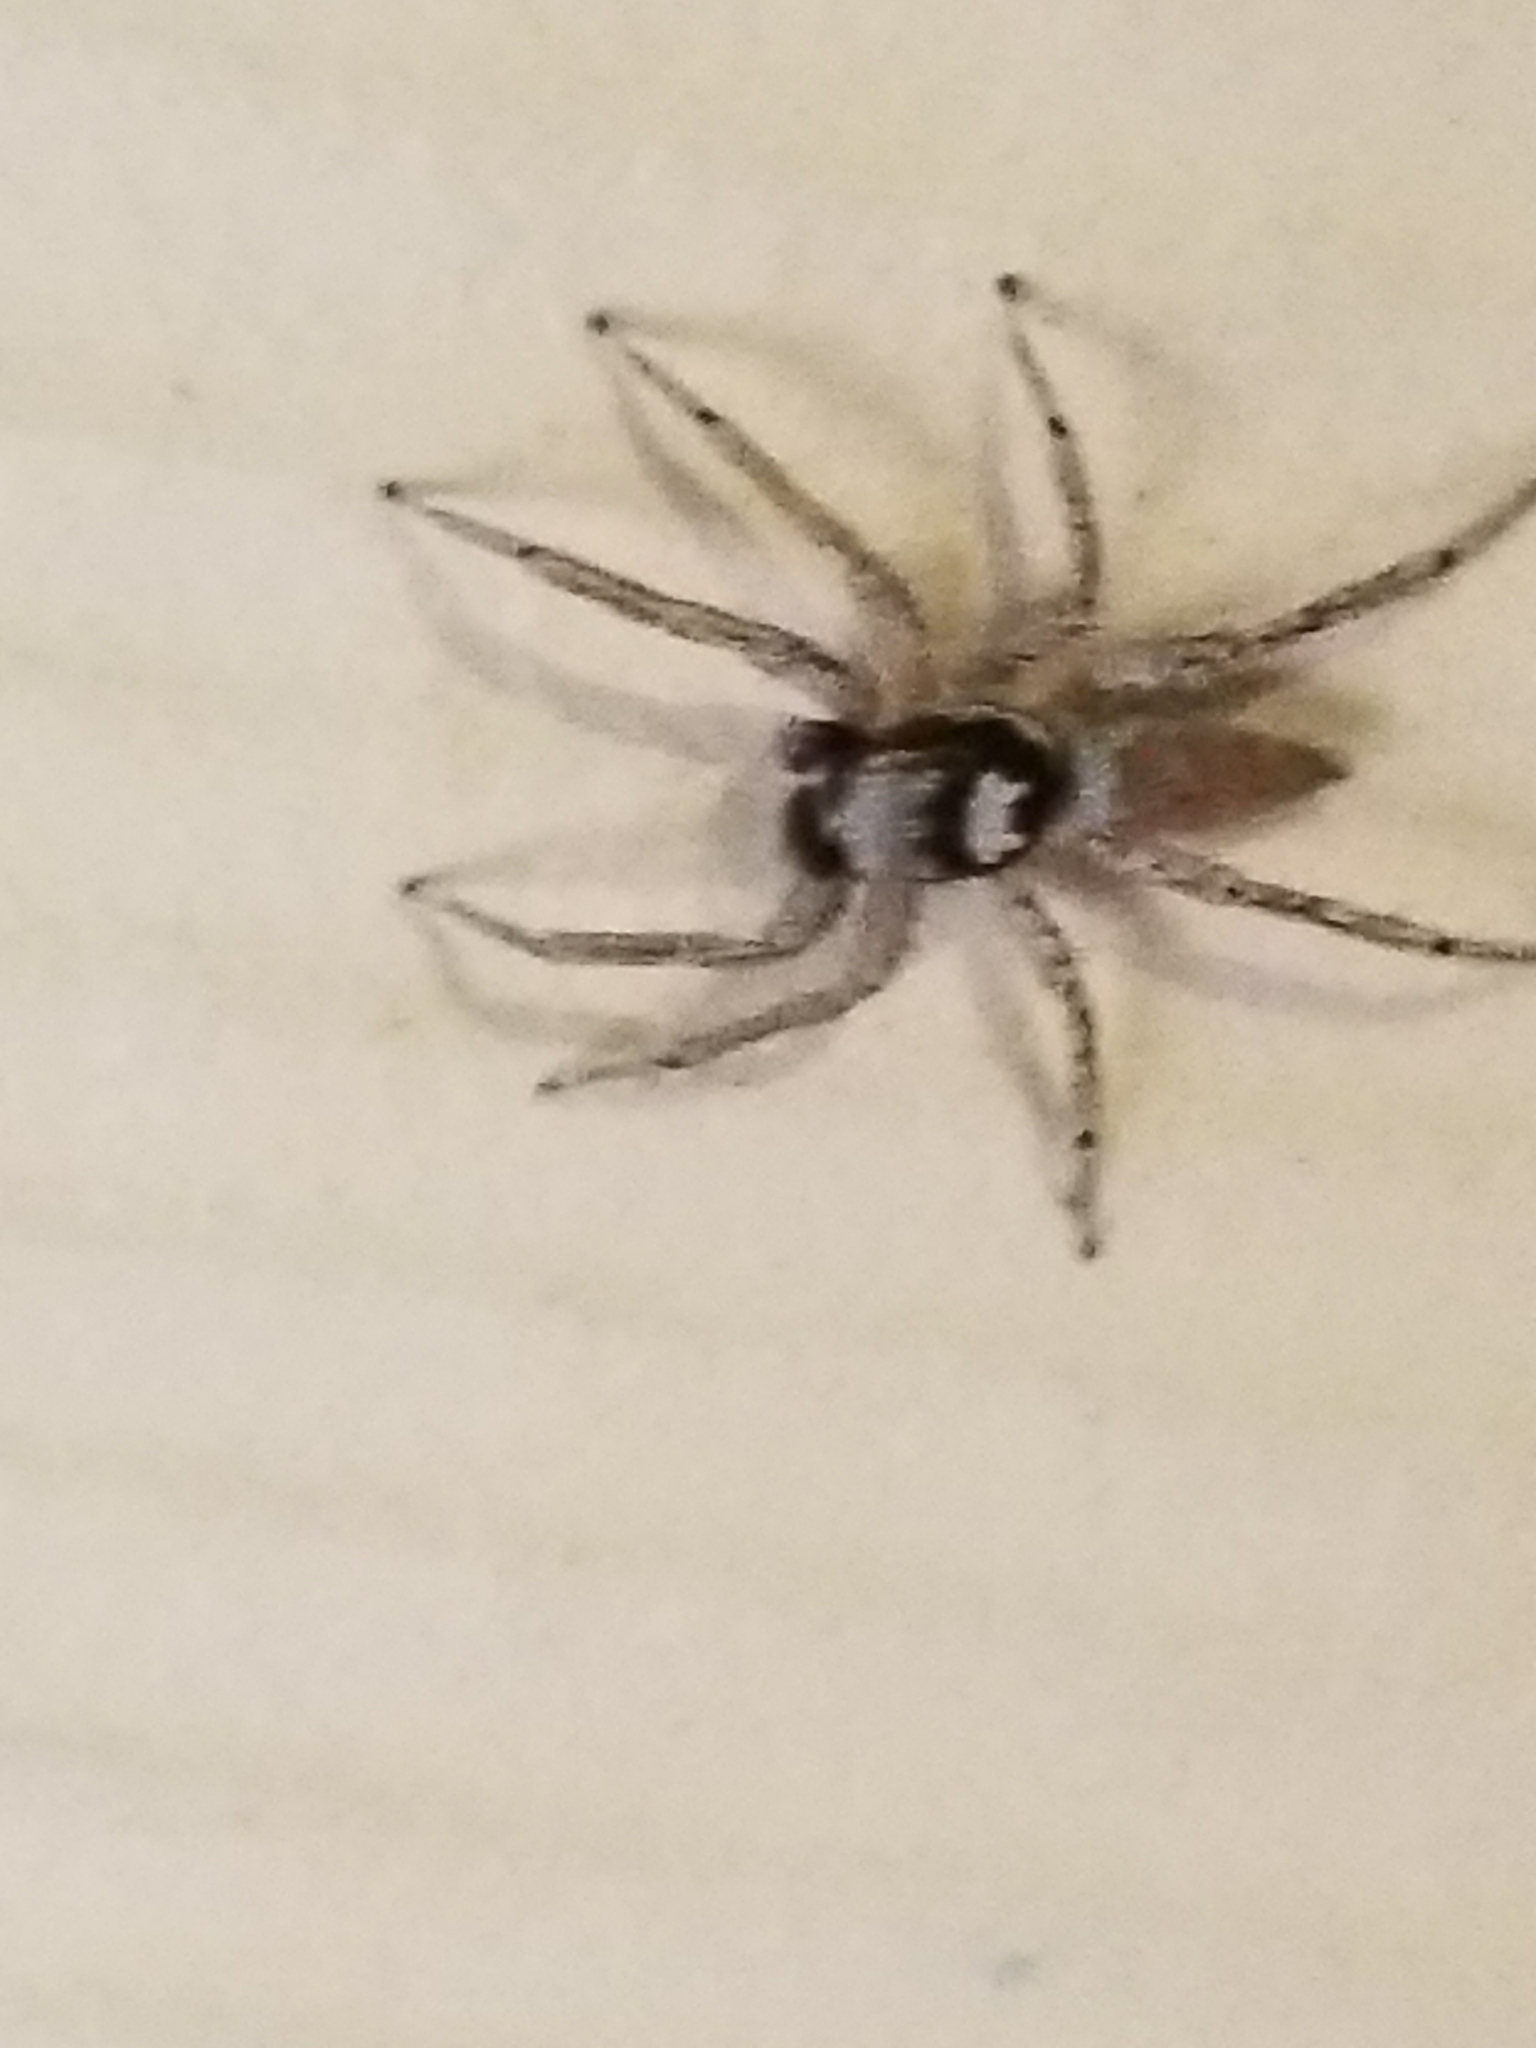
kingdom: Animalia
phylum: Arthropoda
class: Arachnida
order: Araneae
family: Salticidae
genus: Paramaevia
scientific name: Paramaevia poultoni
